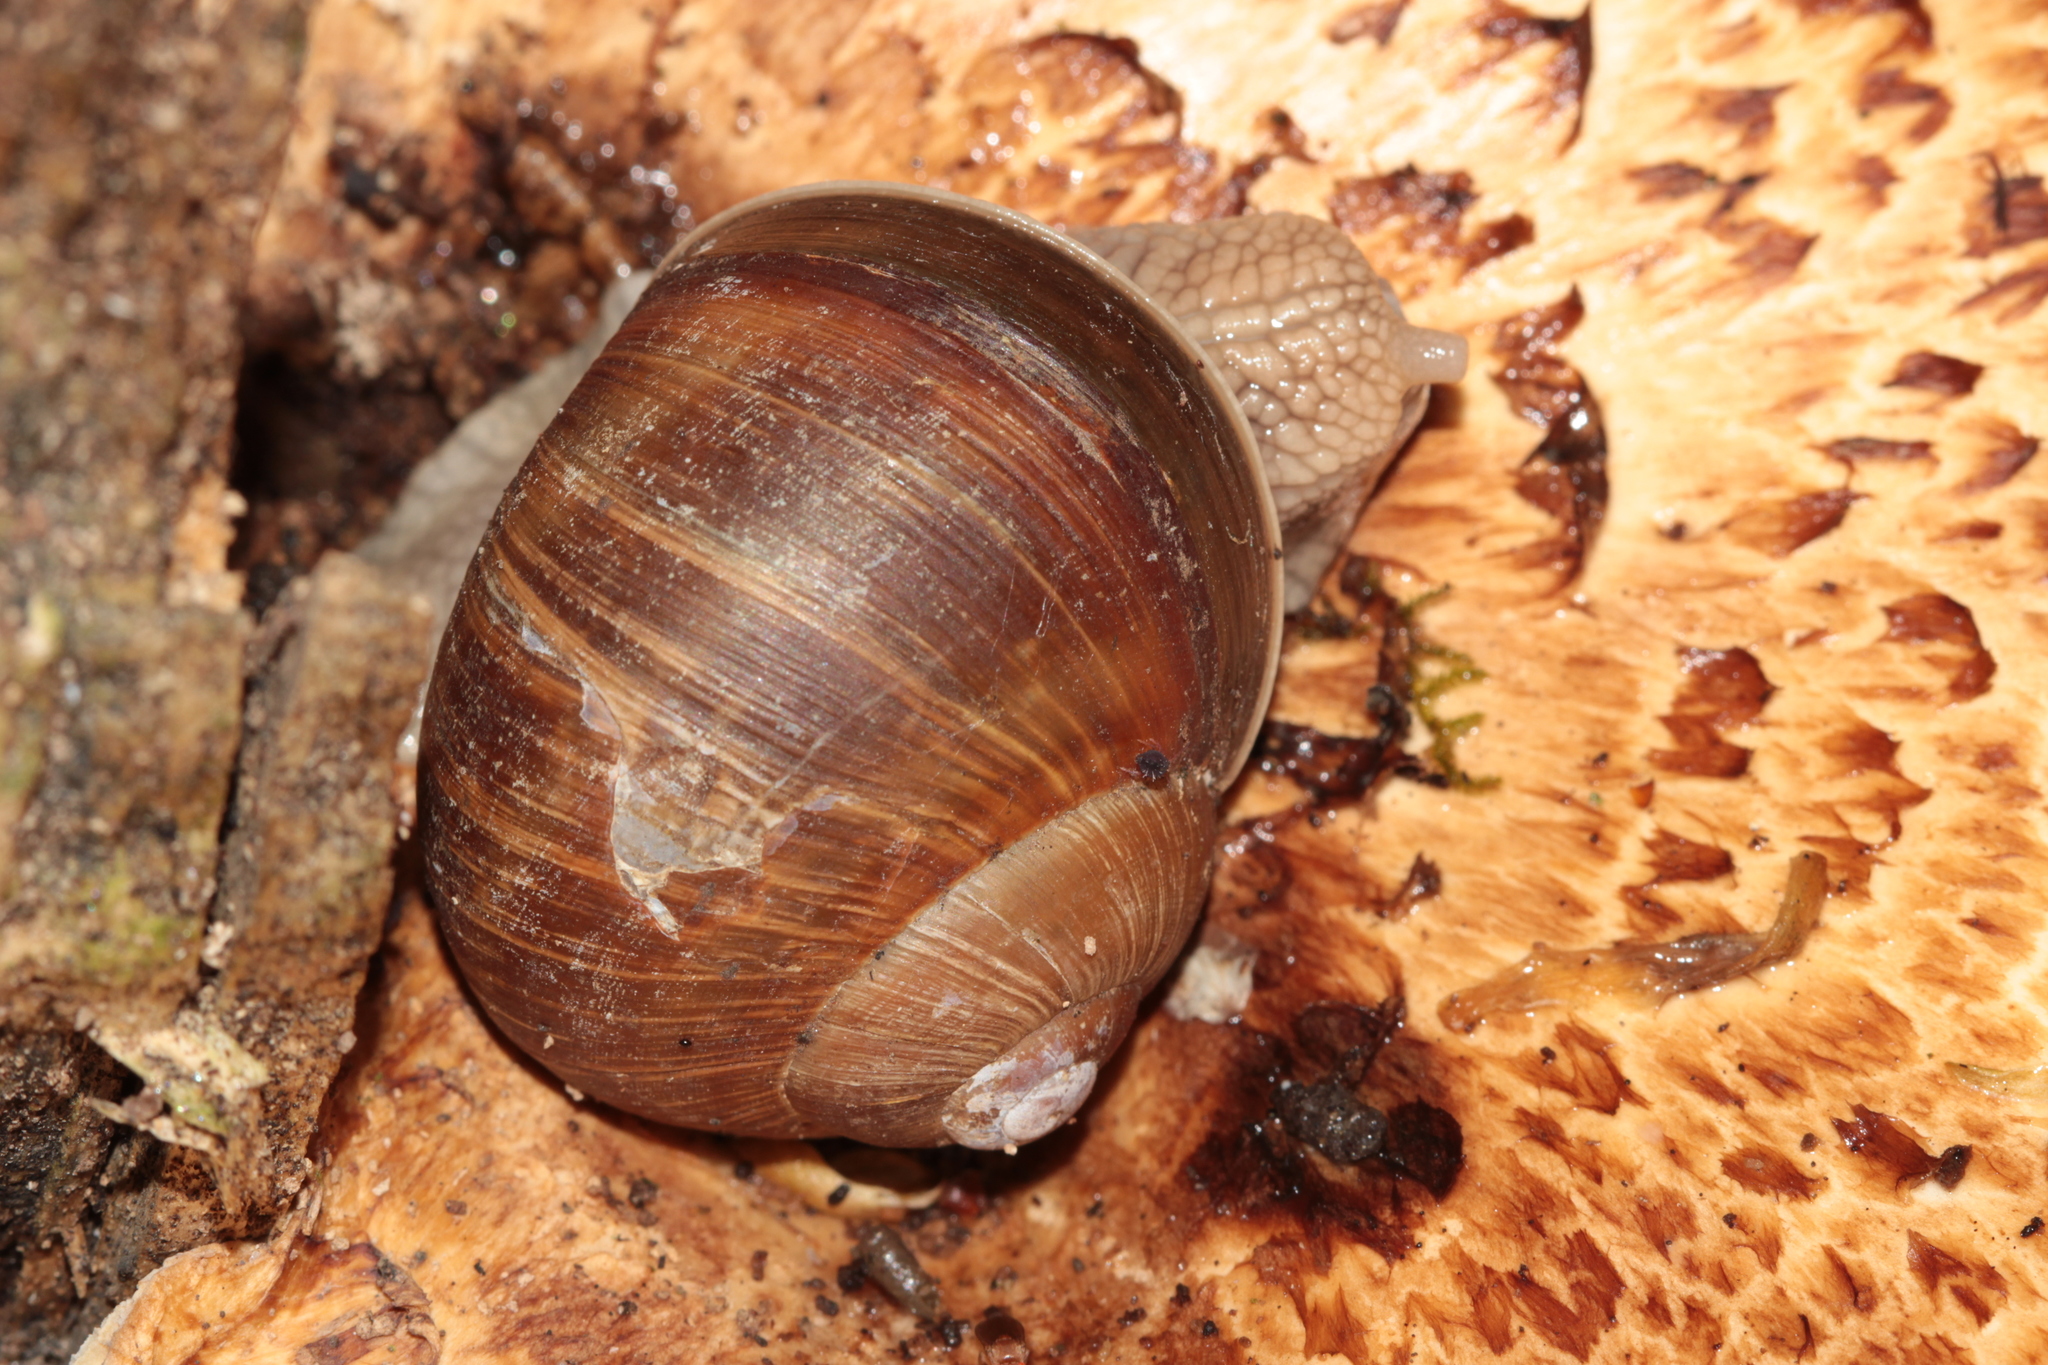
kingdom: Animalia
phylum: Mollusca
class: Gastropoda
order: Stylommatophora
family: Helicidae
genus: Helix
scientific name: Helix pomatia
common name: Roman snail
